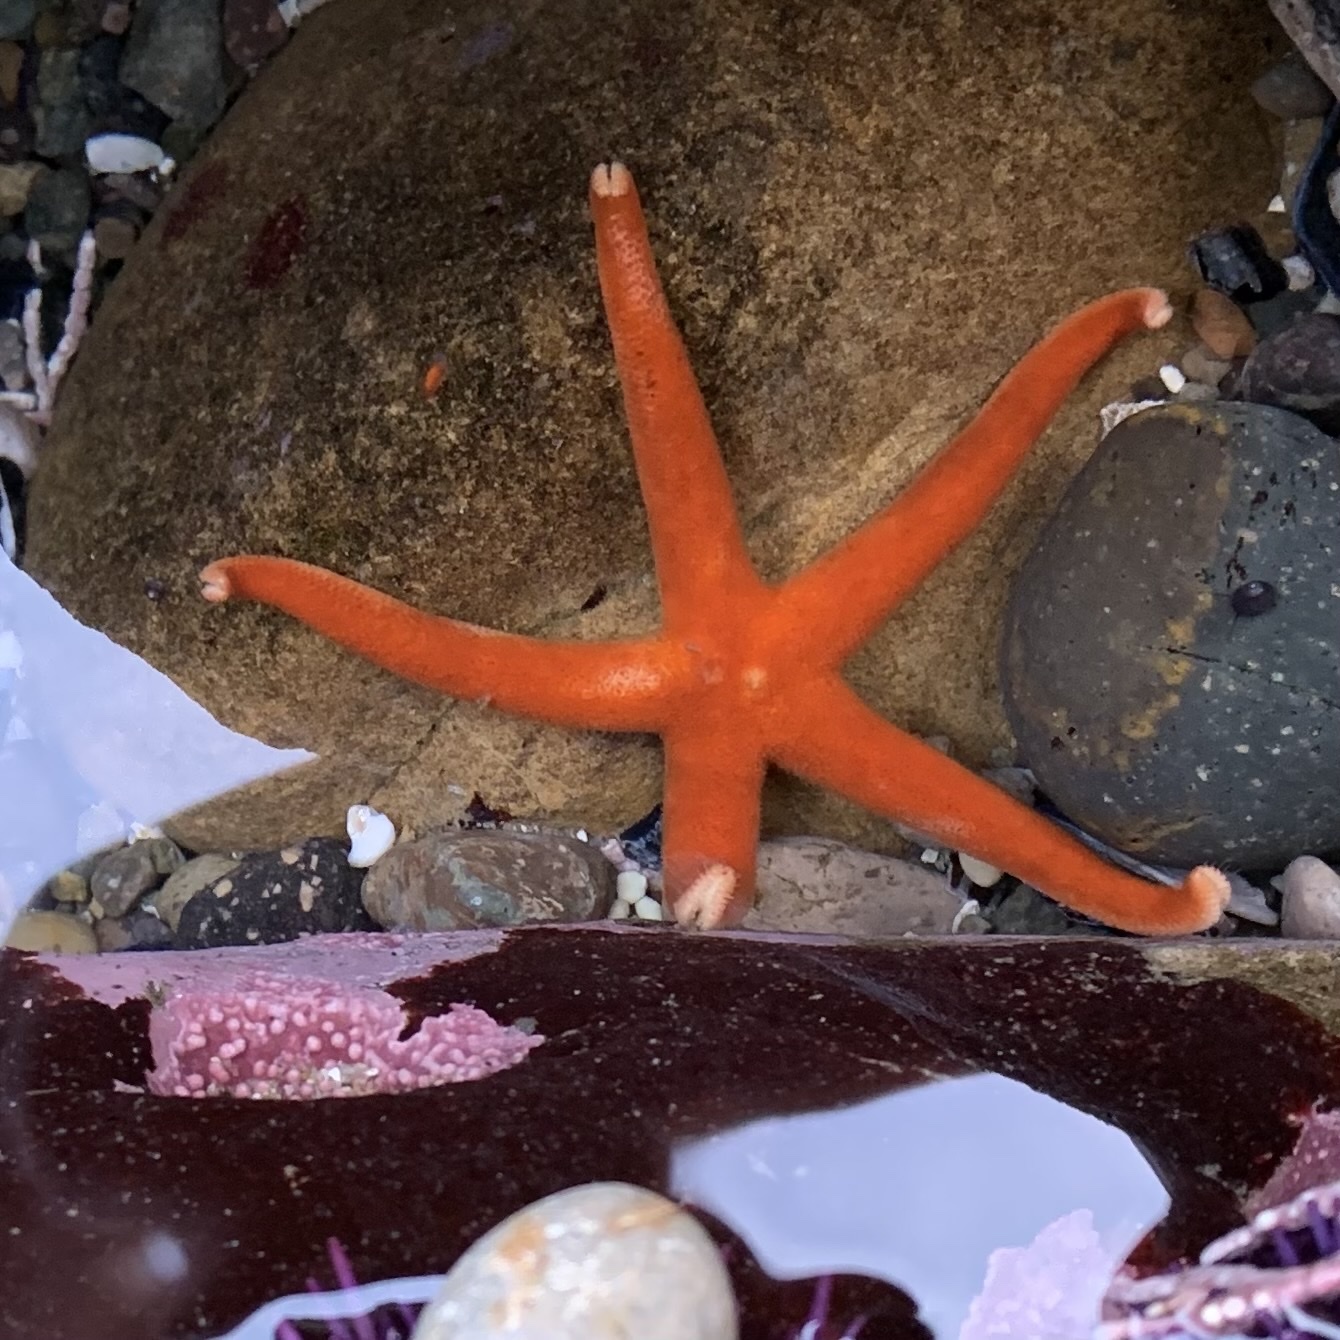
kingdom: Animalia
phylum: Echinodermata
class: Asteroidea
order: Spinulosida
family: Echinasteridae
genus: Henricia
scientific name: Henricia leviuscula
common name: Pacific blood star
